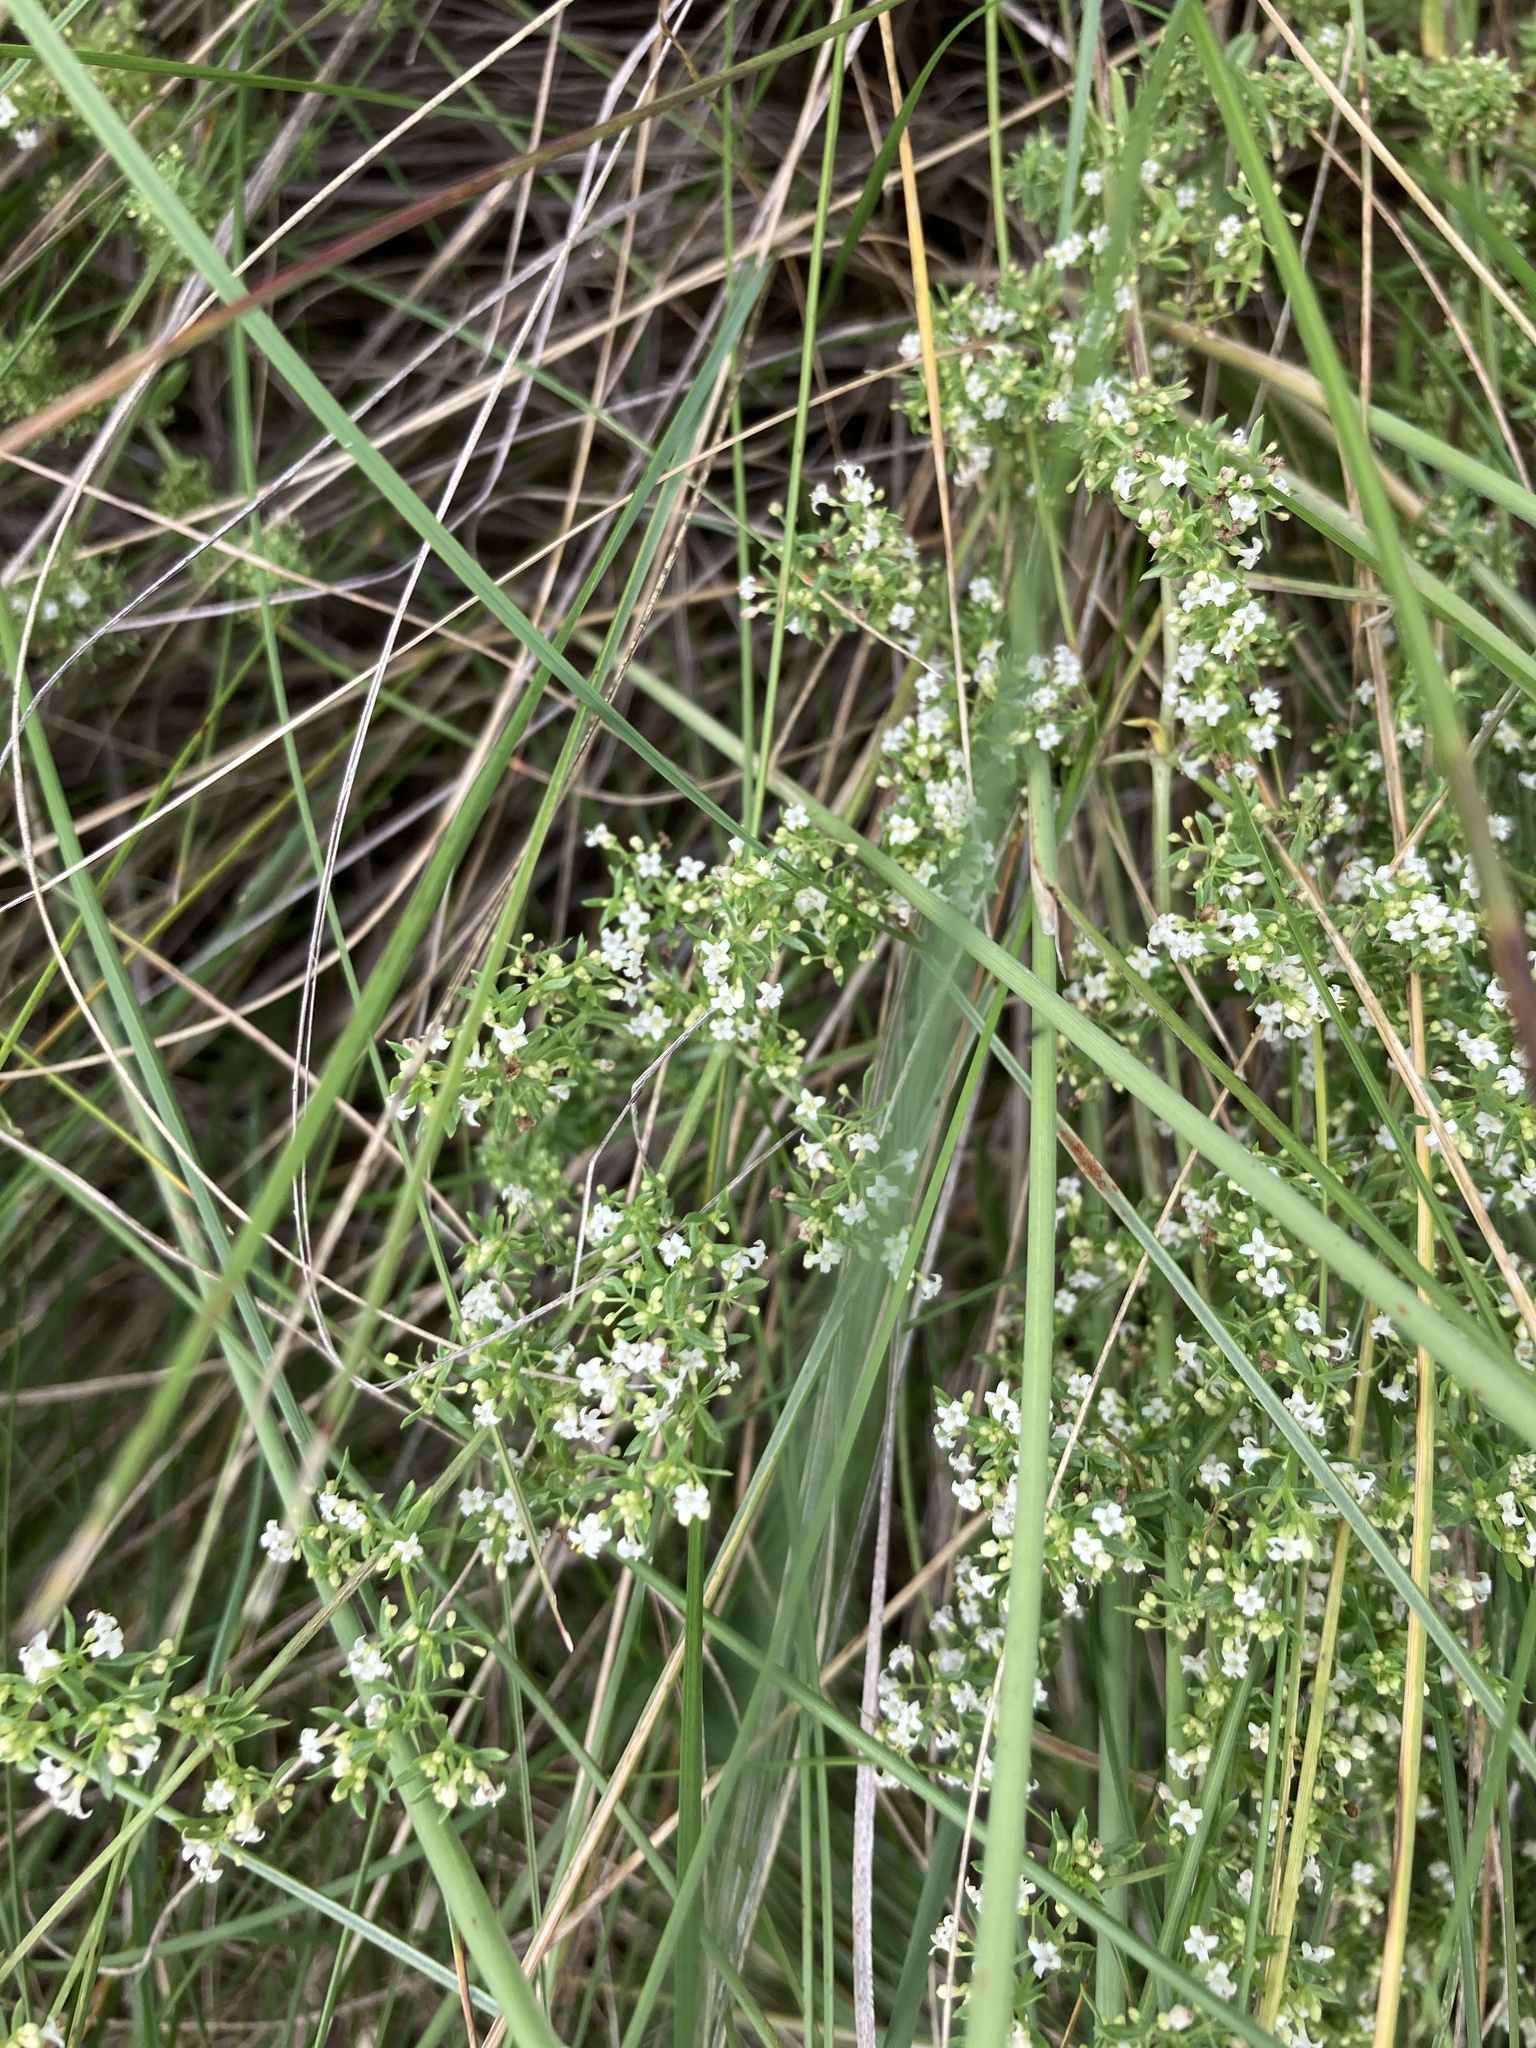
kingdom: Plantae
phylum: Tracheophyta
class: Magnoliopsida
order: Gentianales
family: Rubiaceae
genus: Galium
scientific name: Galium humifusum
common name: Spreading bedstraw
